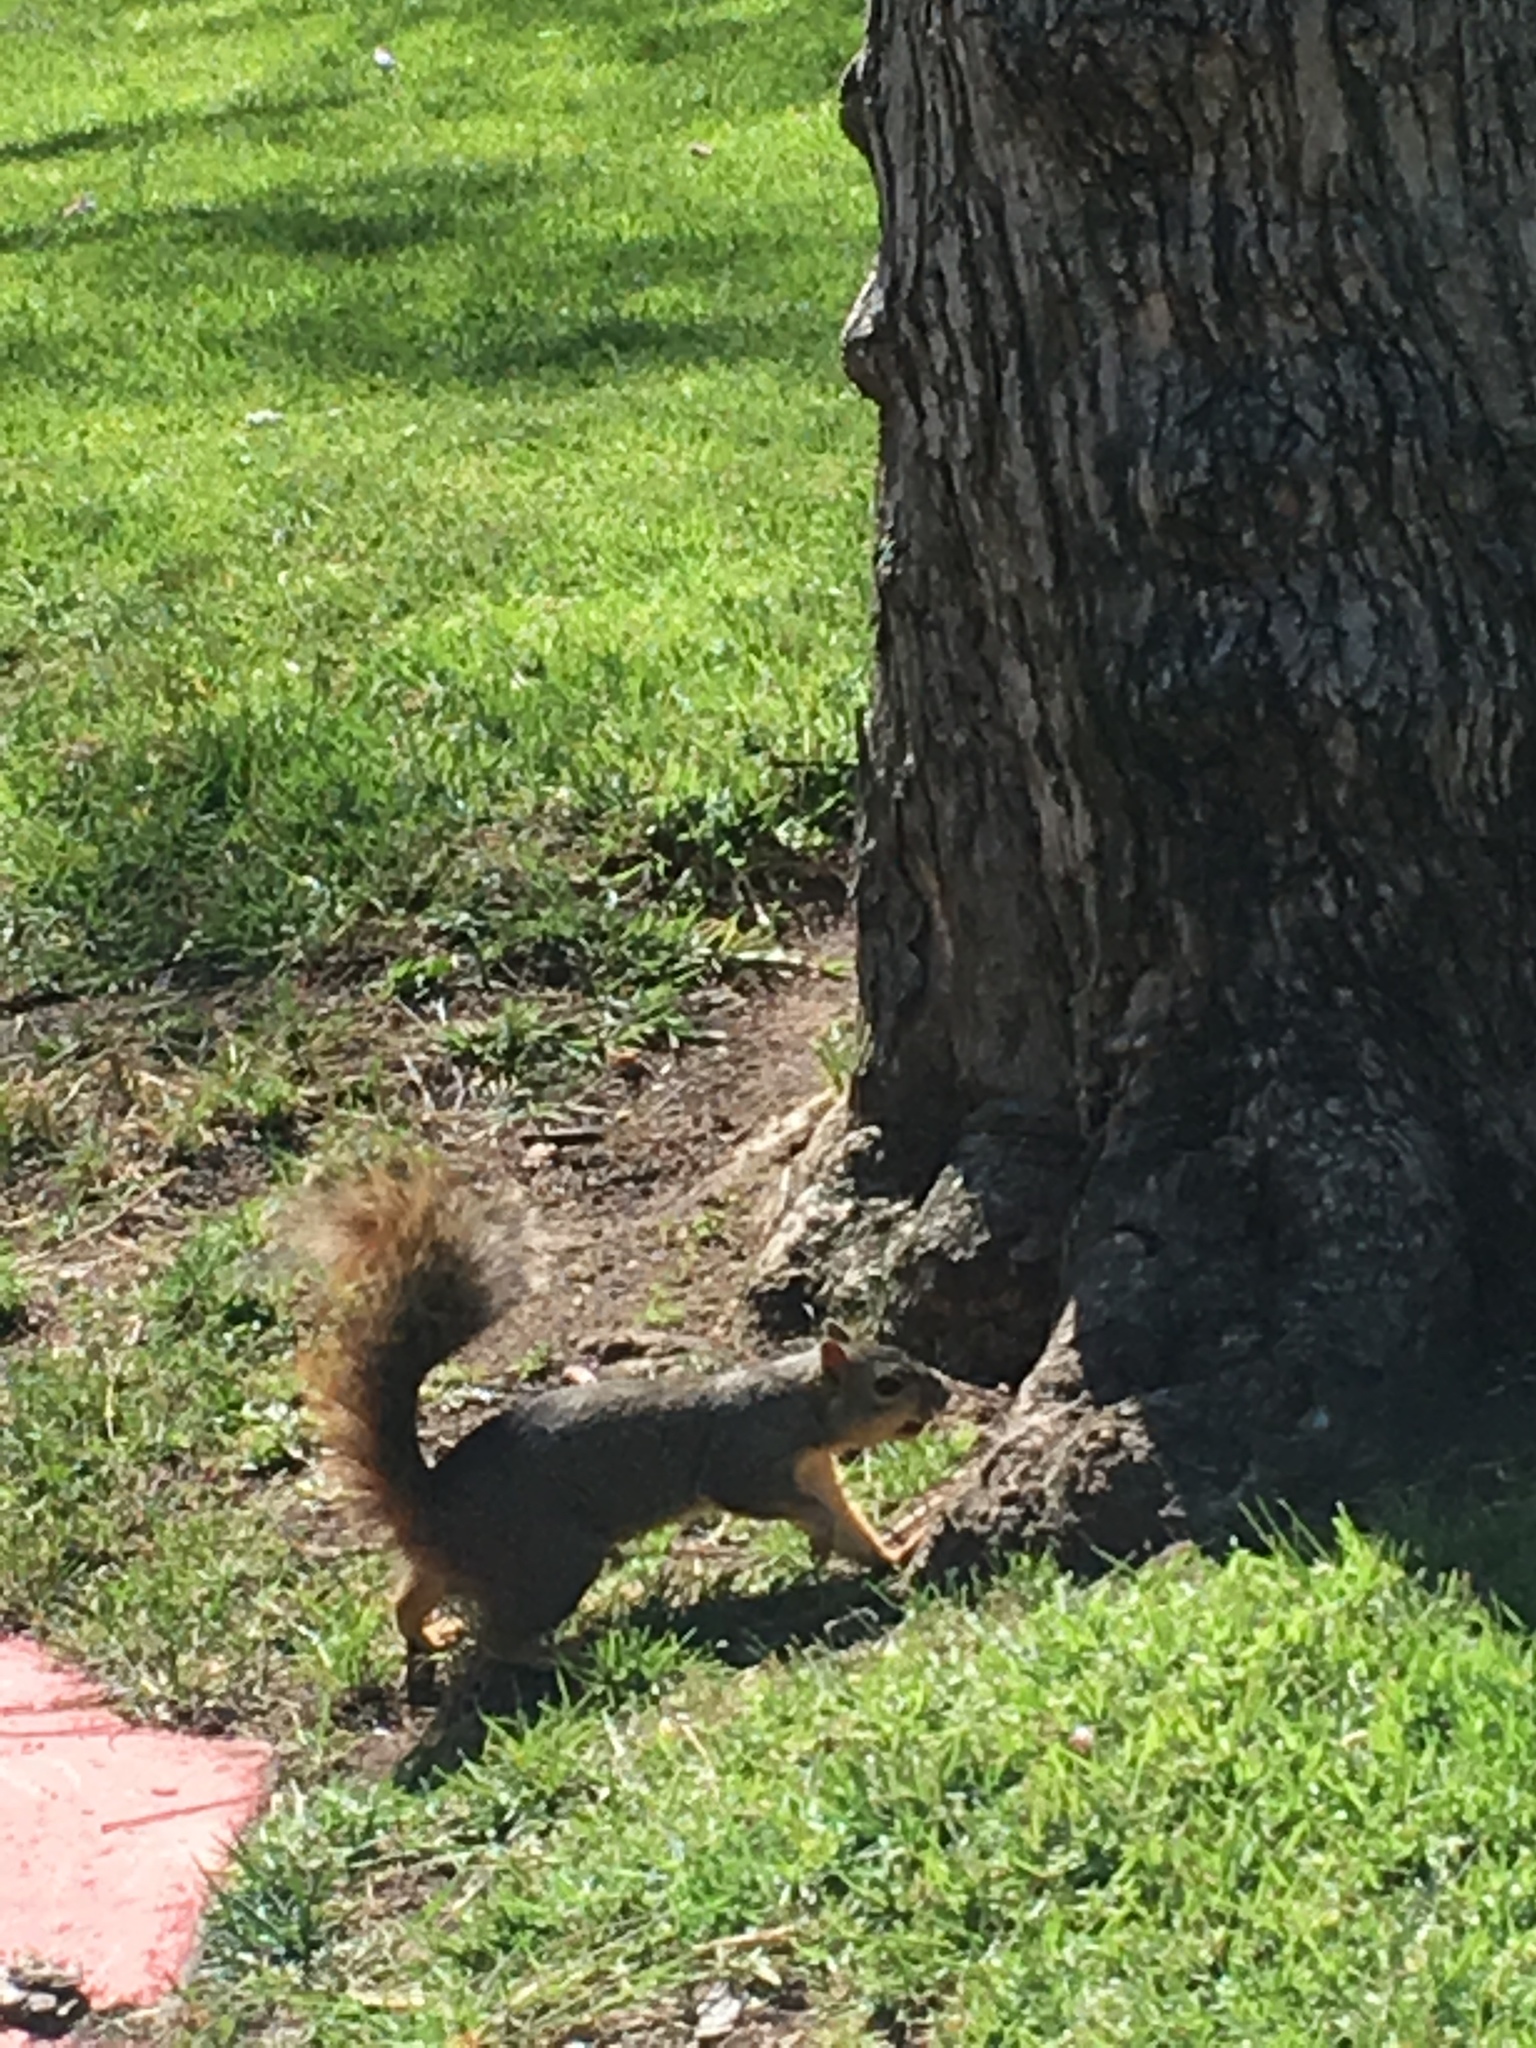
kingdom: Animalia
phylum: Chordata
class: Mammalia
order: Rodentia
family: Sciuridae
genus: Sciurus
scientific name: Sciurus niger
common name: Fox squirrel
